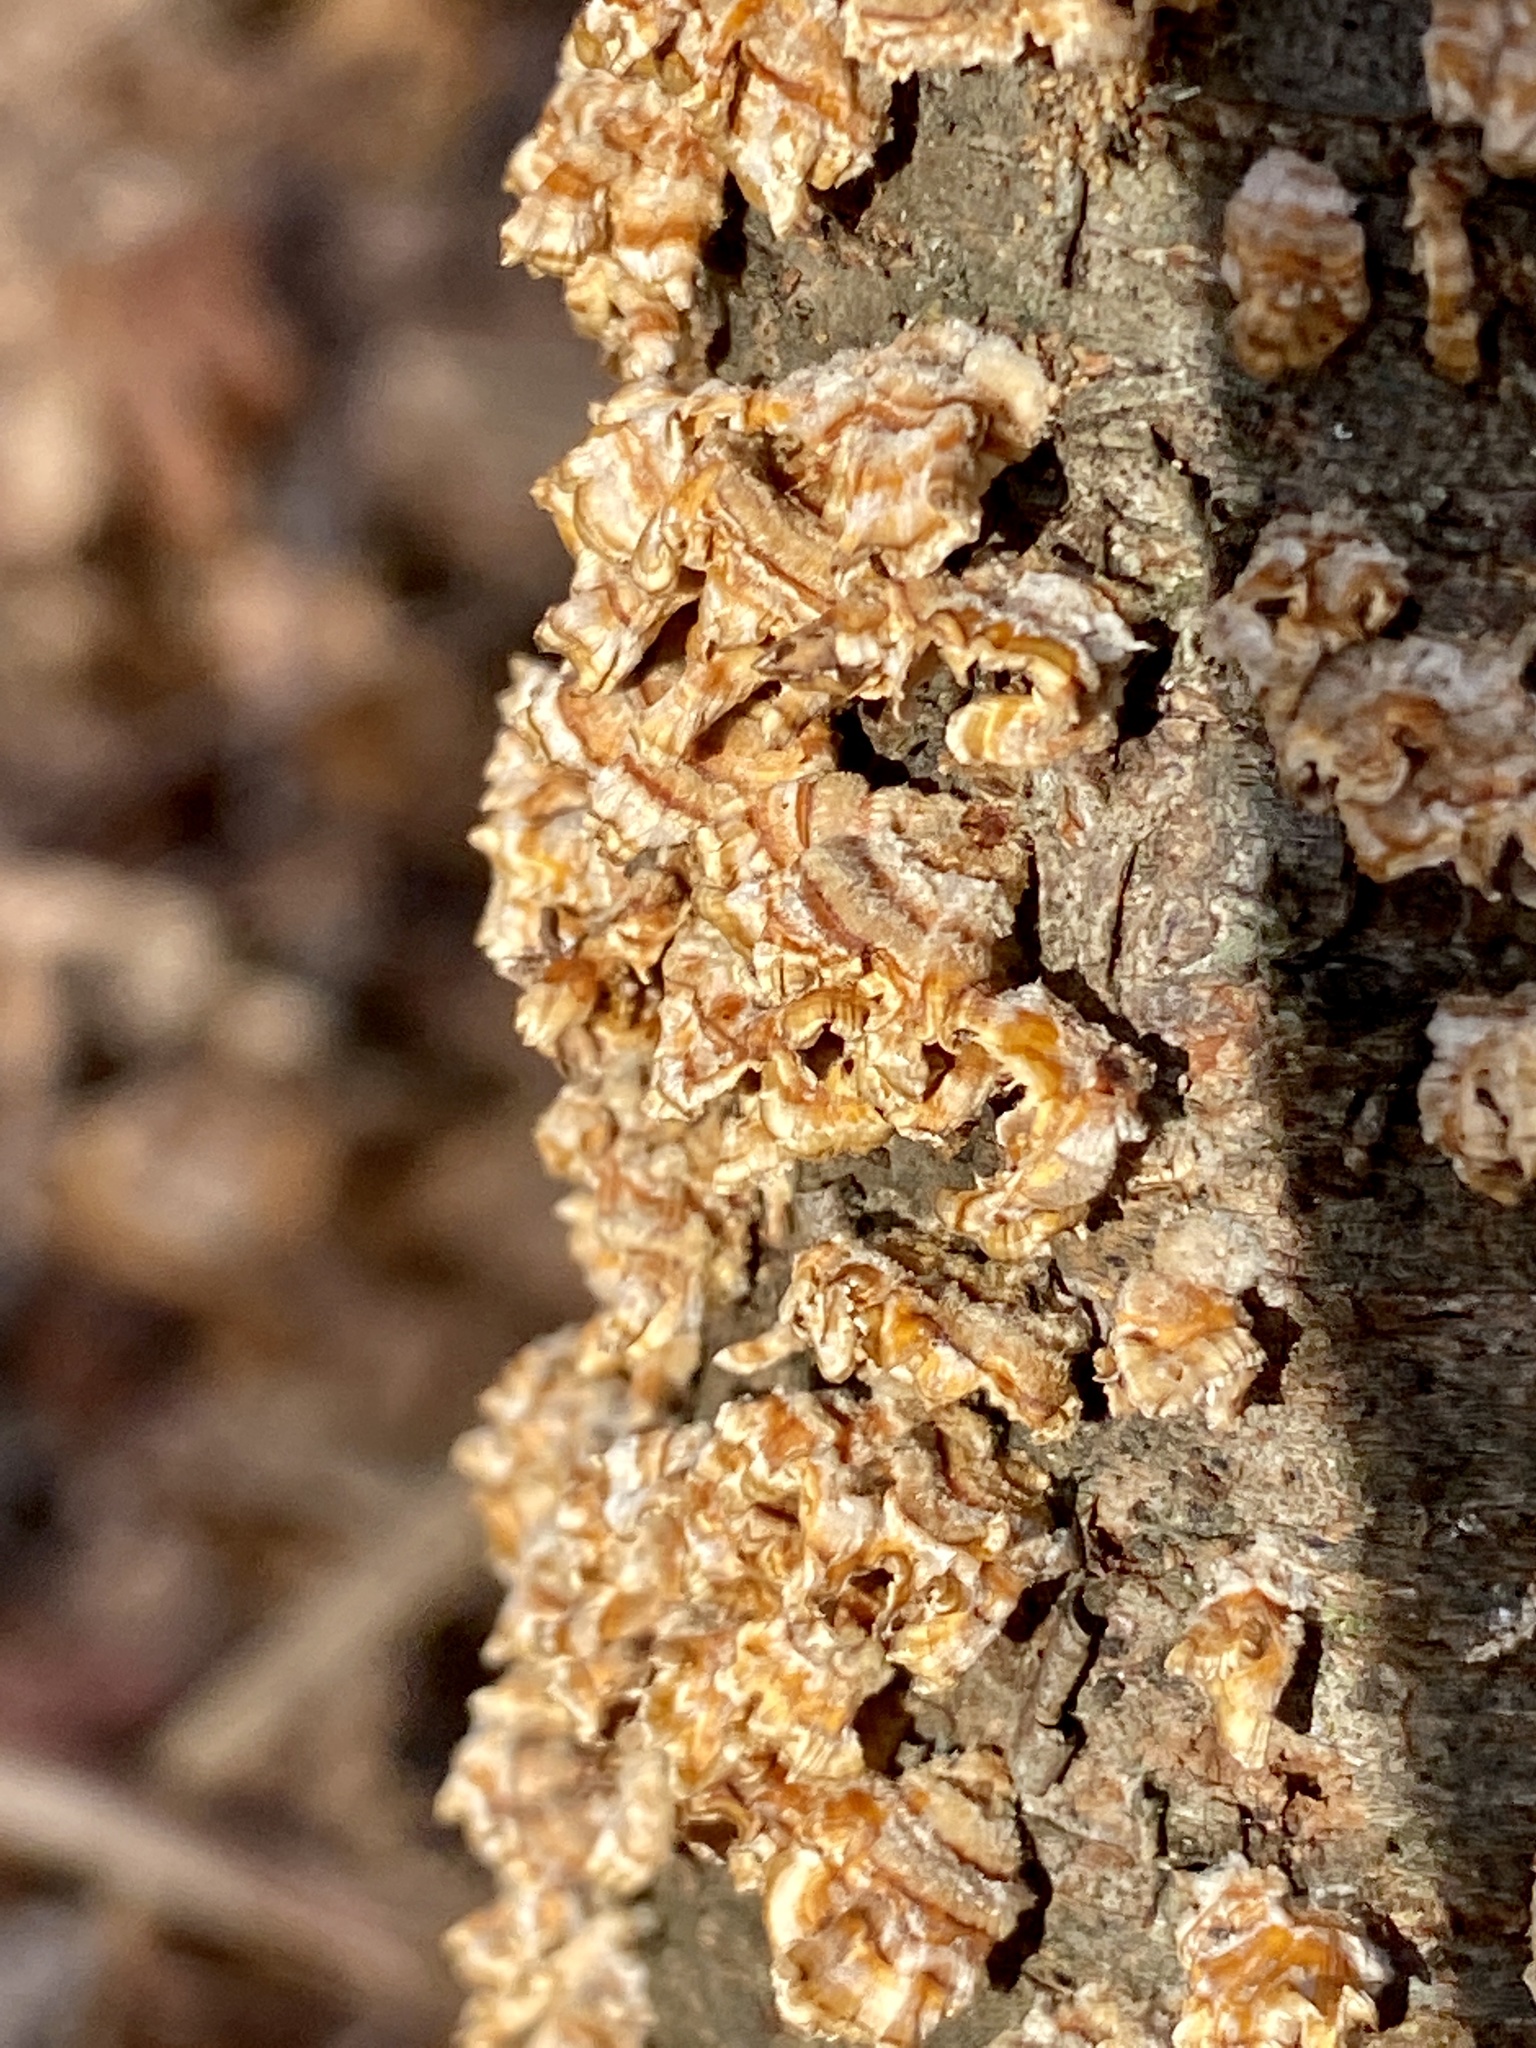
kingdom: Fungi
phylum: Basidiomycota
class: Agaricomycetes
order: Russulales
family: Stereaceae
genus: Stereum
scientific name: Stereum complicatum
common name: Crowded parchment
